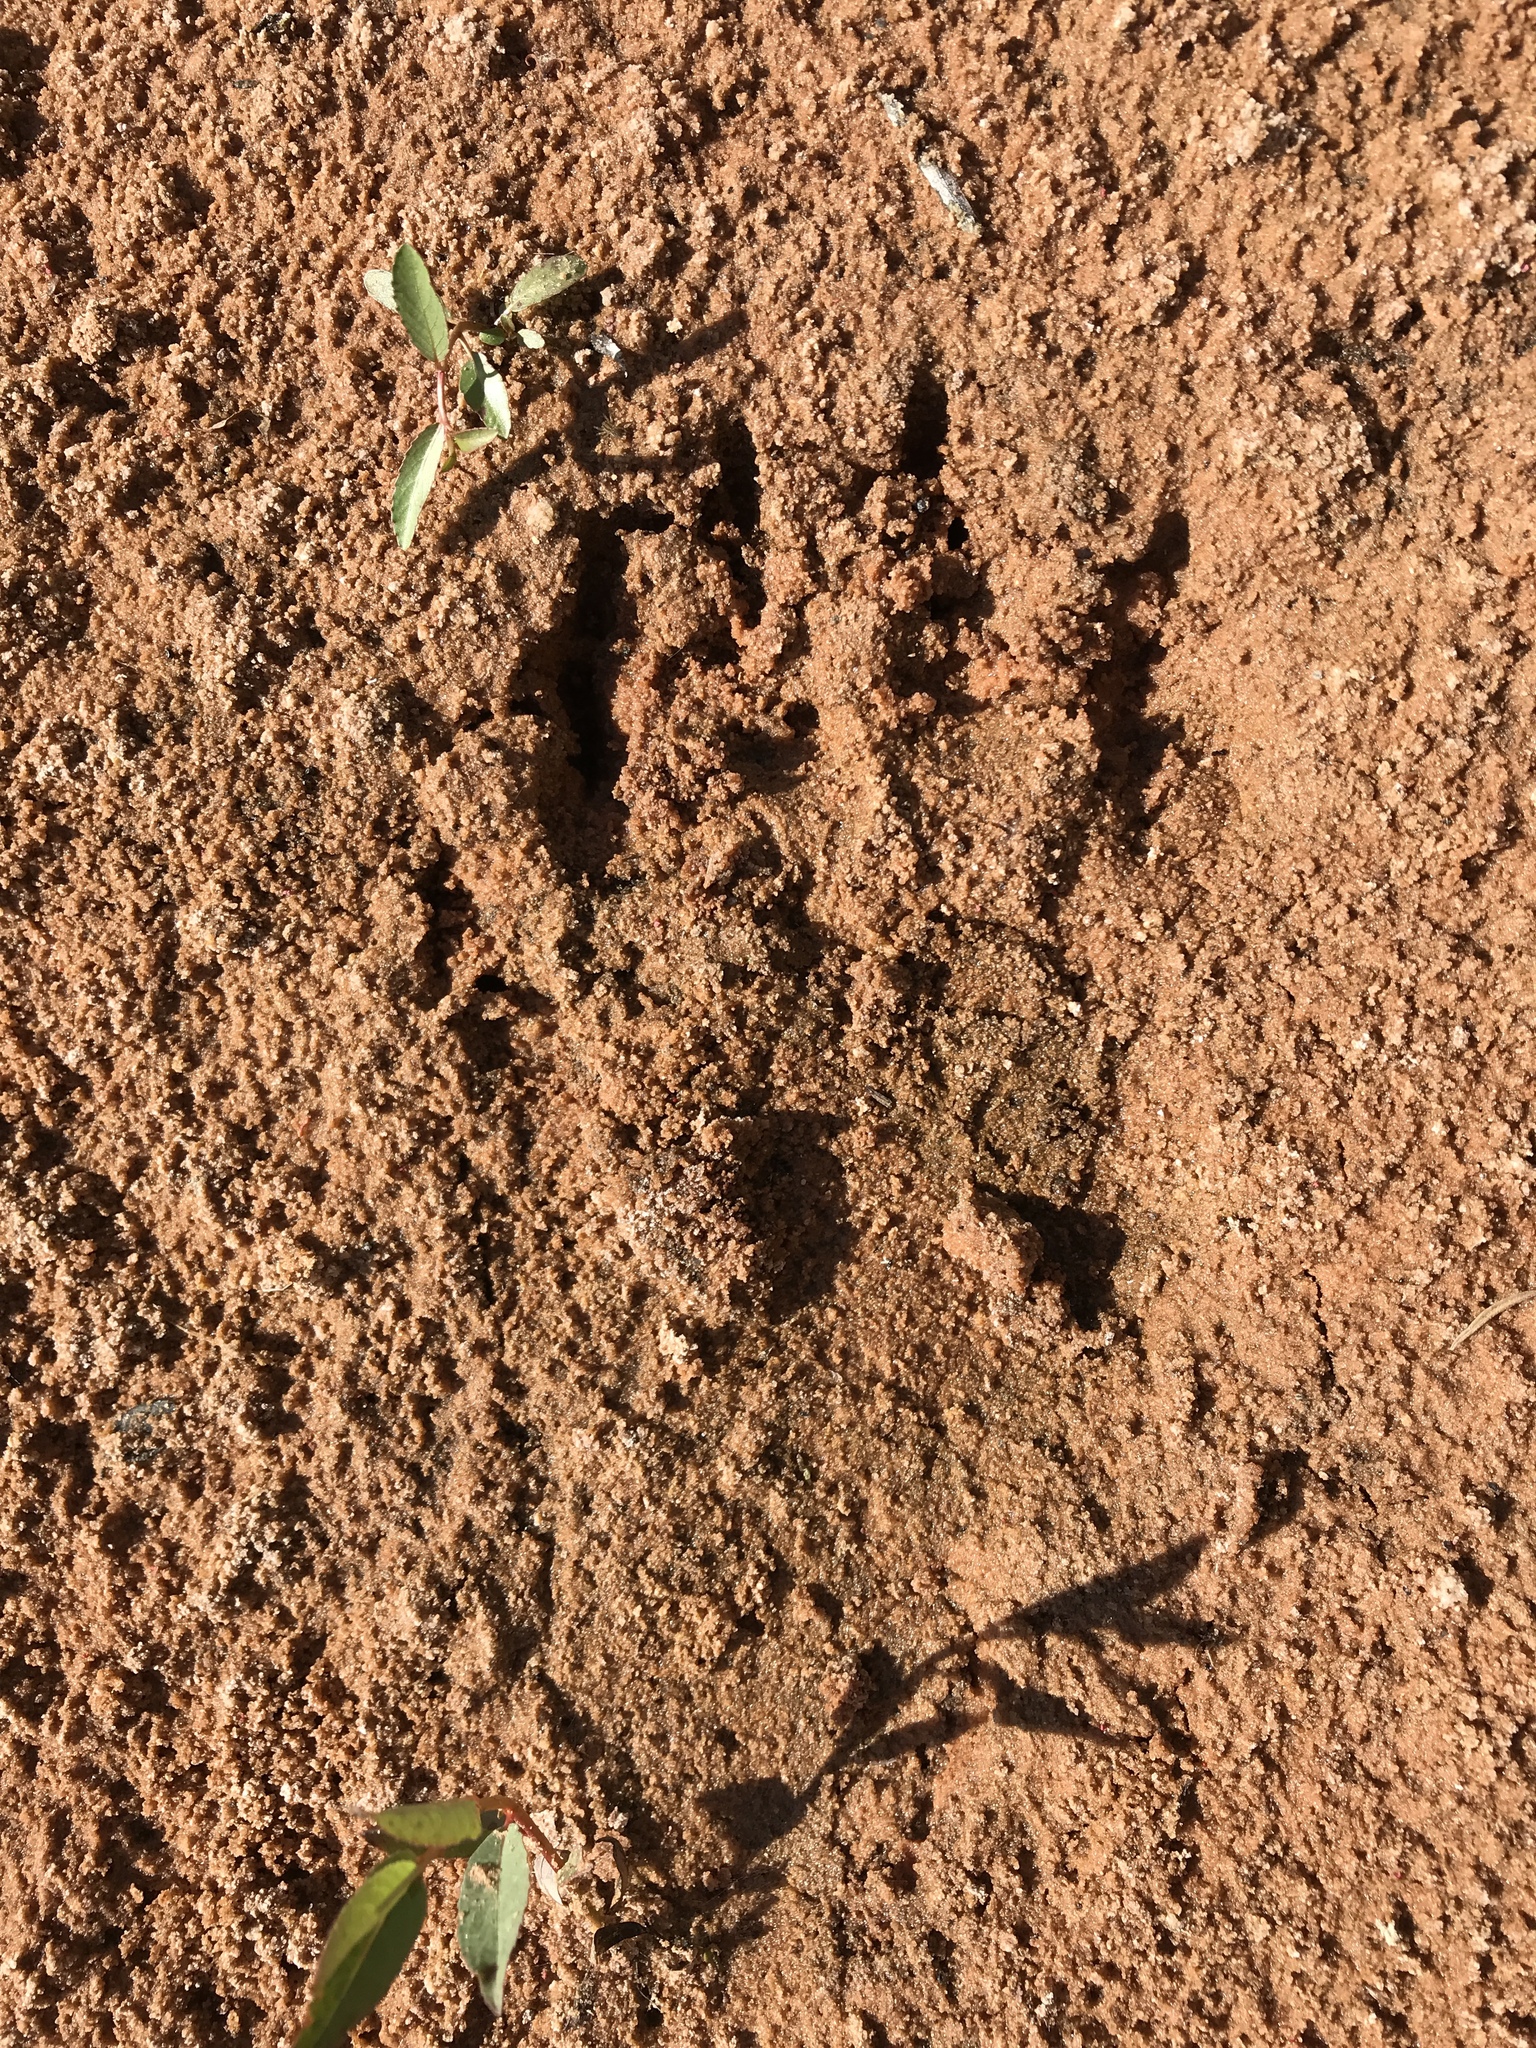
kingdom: Animalia
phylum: Chordata
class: Mammalia
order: Carnivora
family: Ursidae
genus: Ursus
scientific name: Ursus americanus
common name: American black bear
